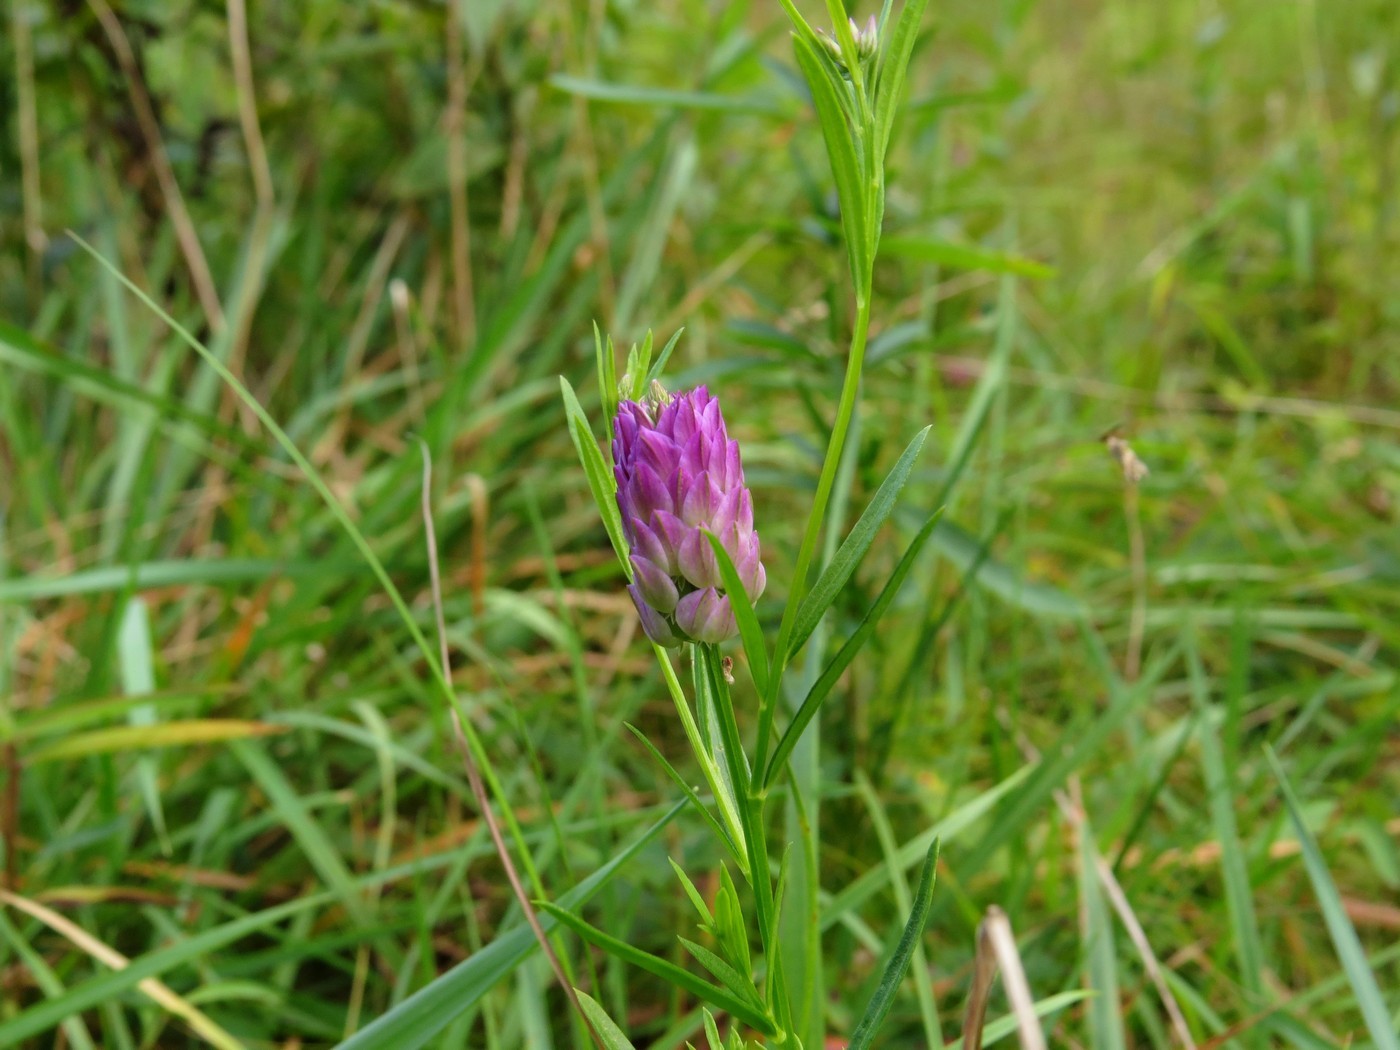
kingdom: Plantae
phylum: Tracheophyta
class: Magnoliopsida
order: Fabales
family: Polygalaceae
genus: Polygala
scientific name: Polygala sanguinea
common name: Blood milkwort
